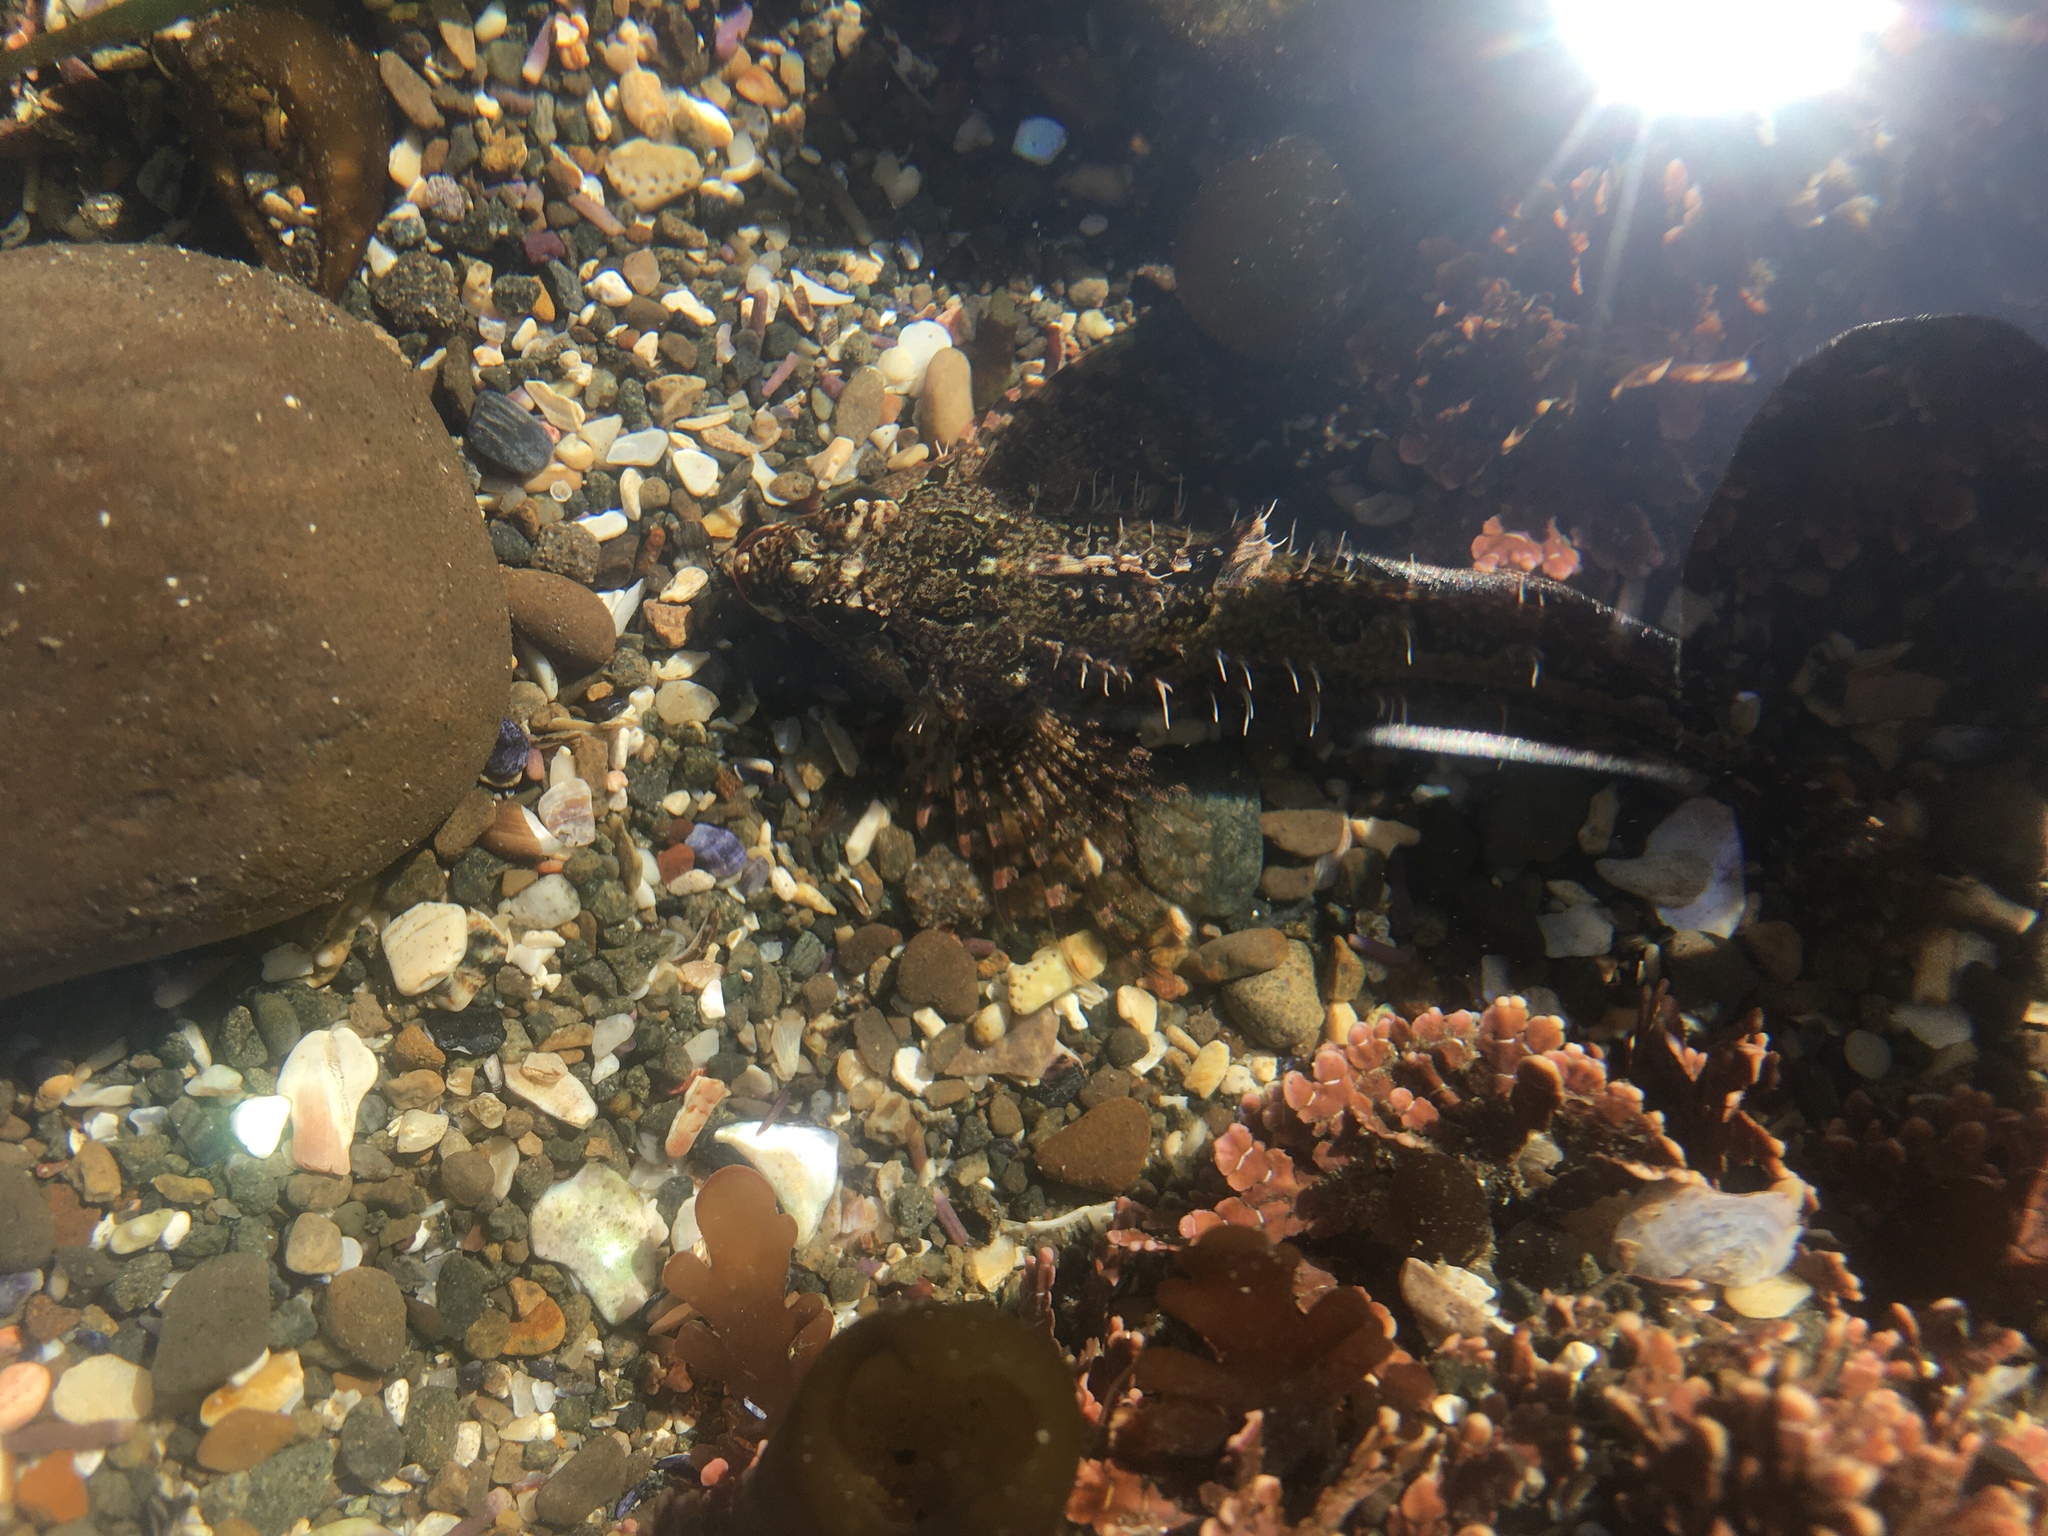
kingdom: Animalia
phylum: Chordata
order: Scorpaeniformes
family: Cottidae
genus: Oligocottus
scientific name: Oligocottus snyderi
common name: Fluffy sculpin
